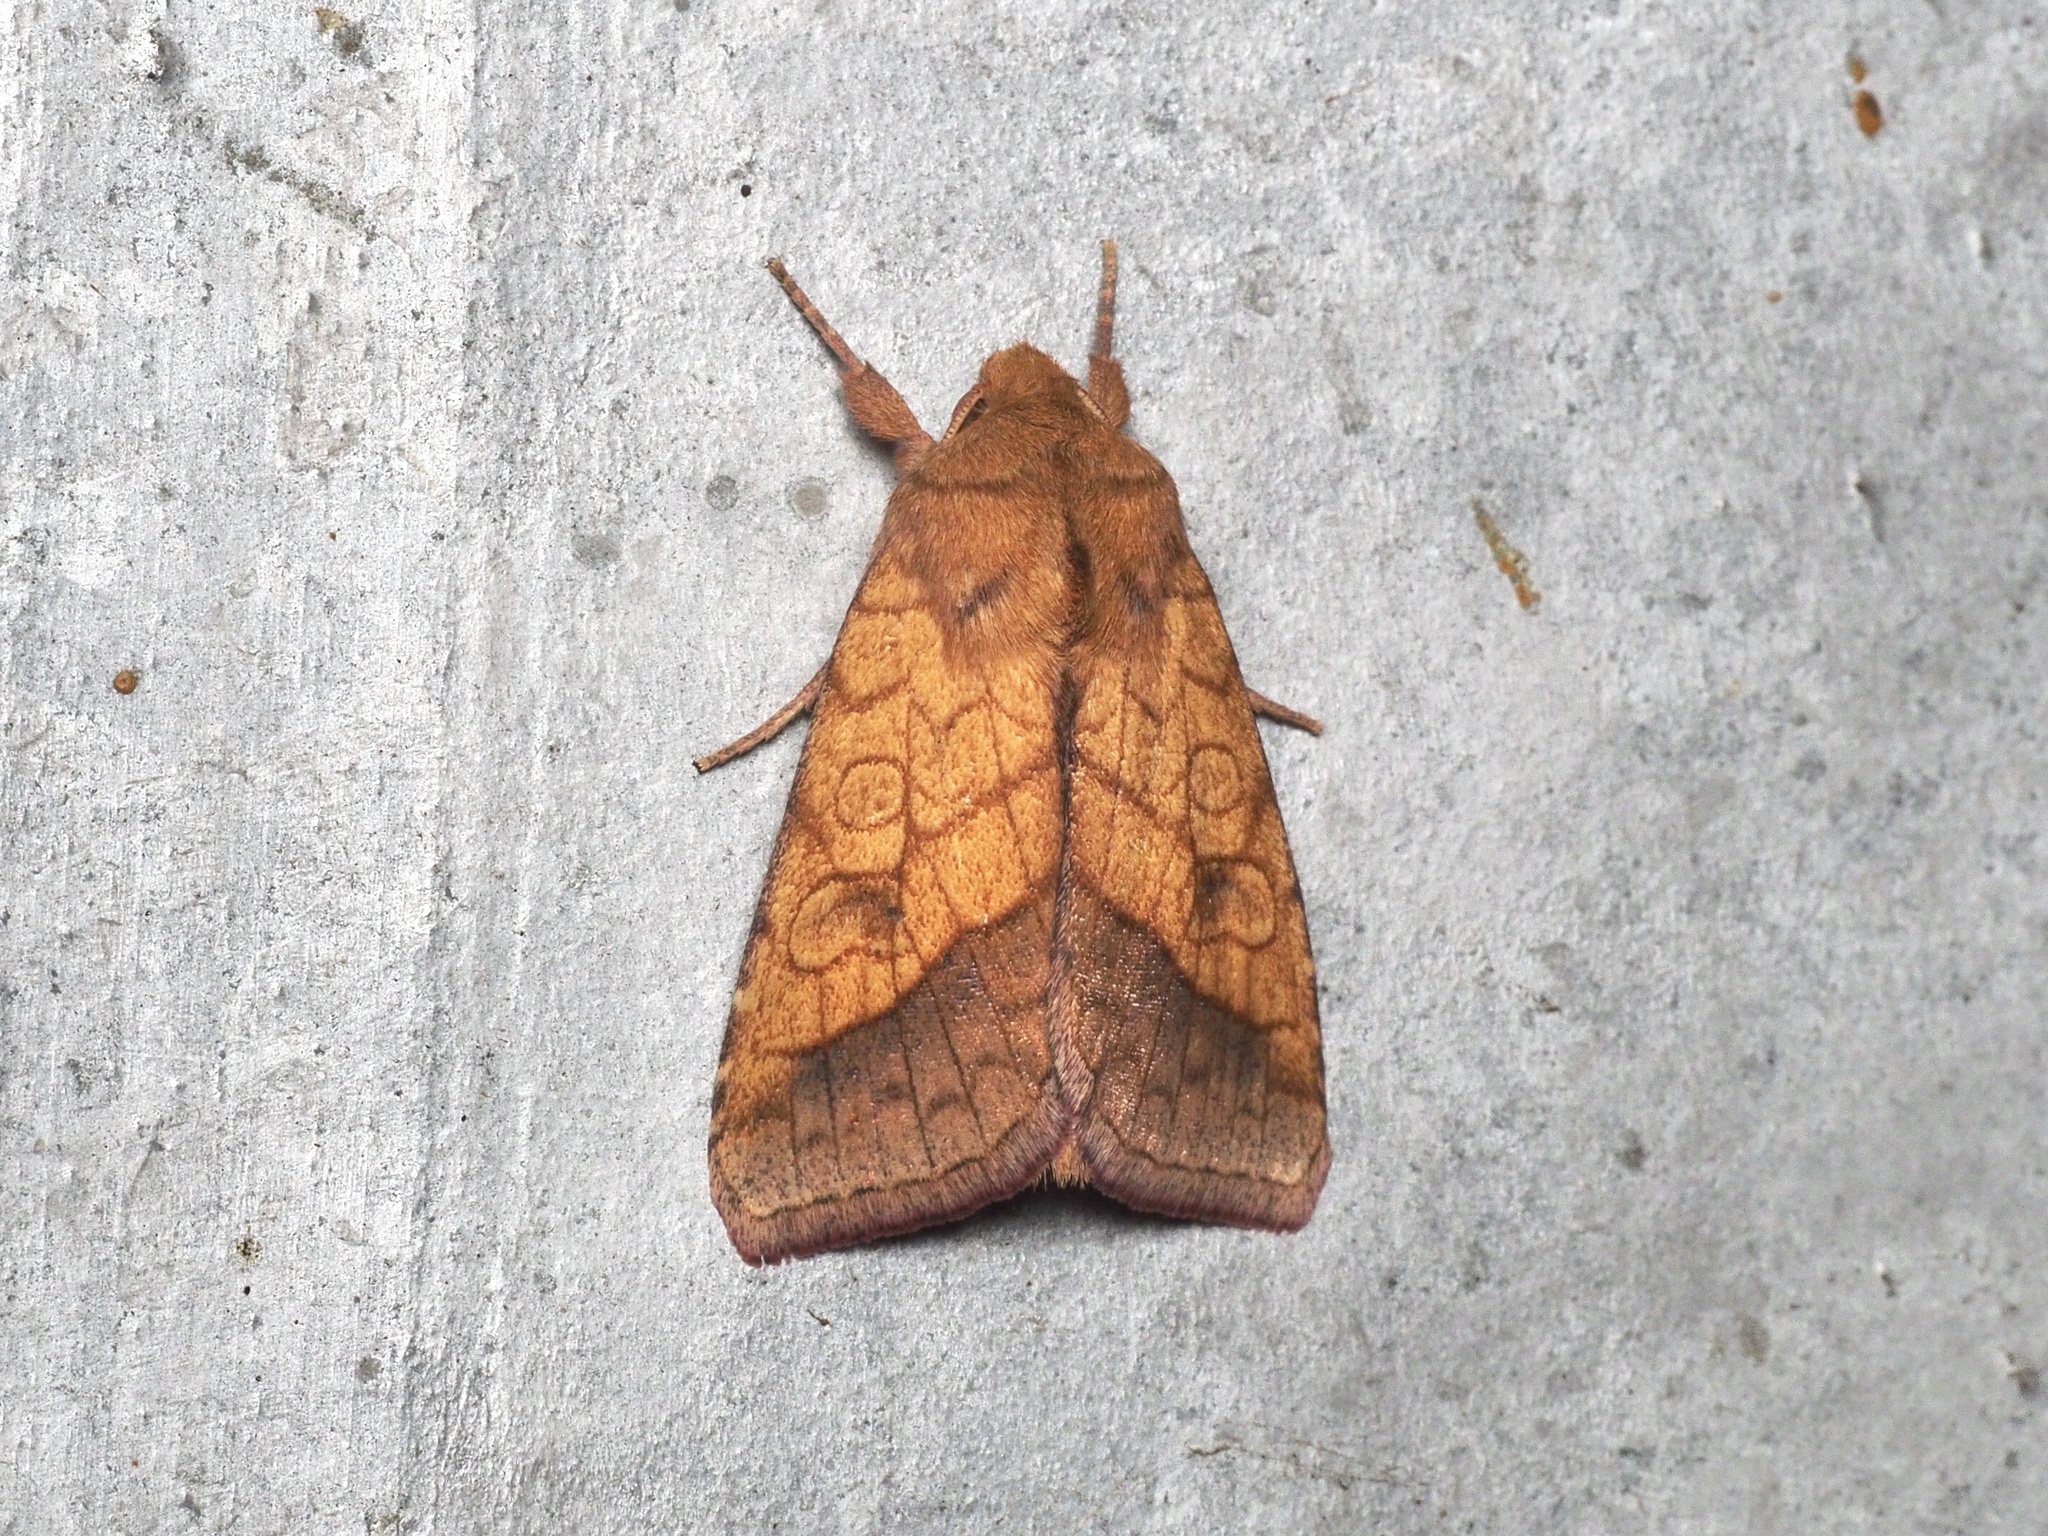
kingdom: Animalia
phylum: Arthropoda
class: Insecta
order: Lepidoptera
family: Noctuidae
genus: Pyrrhia
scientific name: Pyrrhia umbra
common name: Bordered sallow
